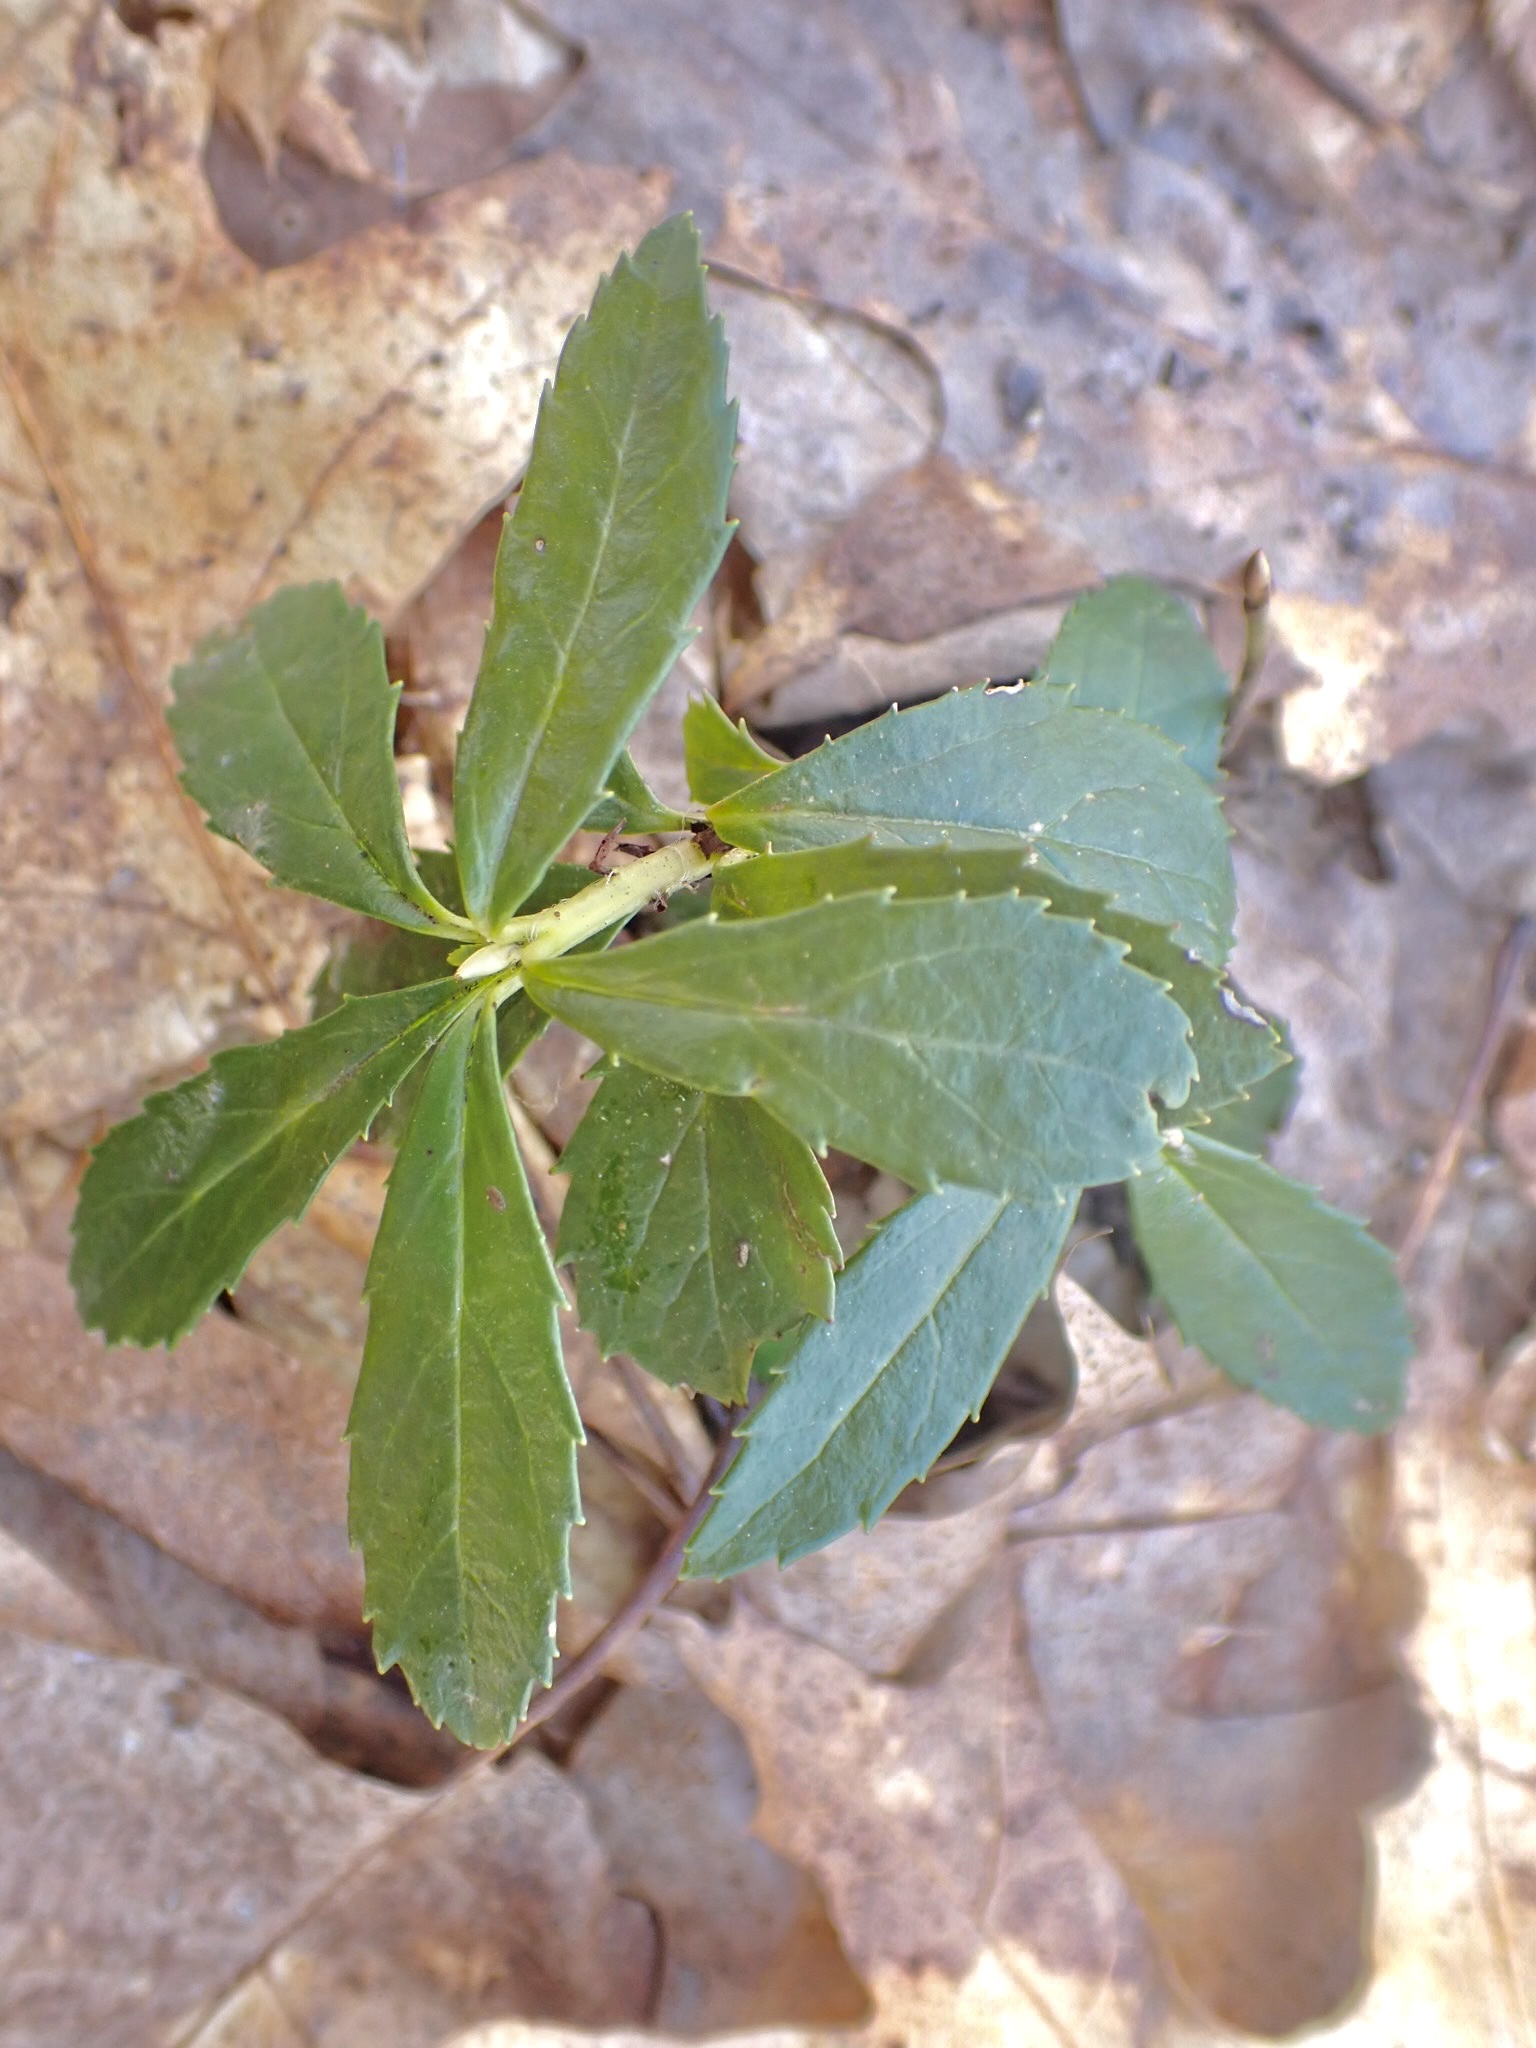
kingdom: Plantae
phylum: Tracheophyta
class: Magnoliopsida
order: Ericales
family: Ericaceae
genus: Chimaphila
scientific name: Chimaphila umbellata
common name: Pipsissewa
